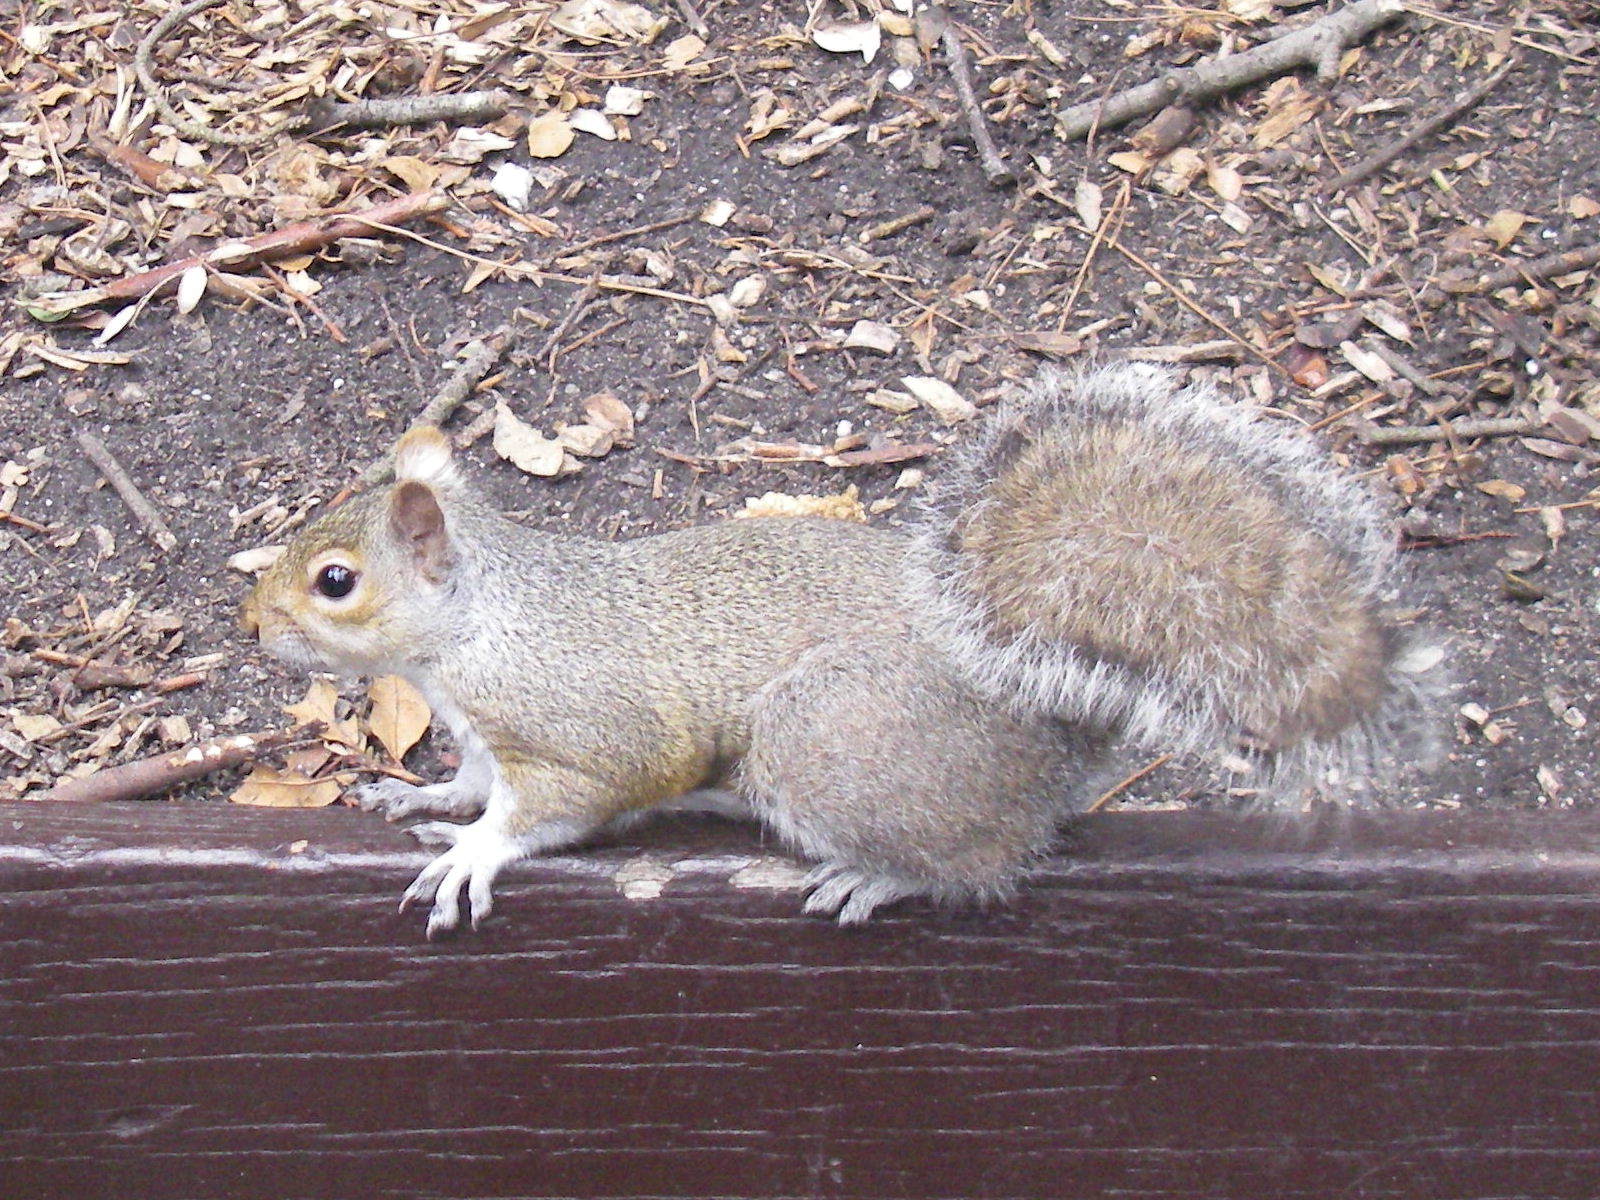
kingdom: Animalia
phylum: Chordata
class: Mammalia
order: Rodentia
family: Sciuridae
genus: Sciurus
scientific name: Sciurus carolinensis
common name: Eastern gray squirrel
